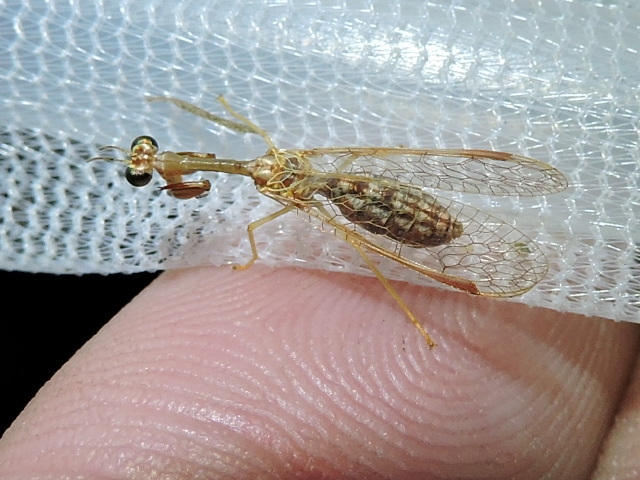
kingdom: Animalia
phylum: Arthropoda
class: Insecta
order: Neuroptera
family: Mantispidae
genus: Dicromantispa
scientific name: Dicromantispa sayi
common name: Say's mantidfly
